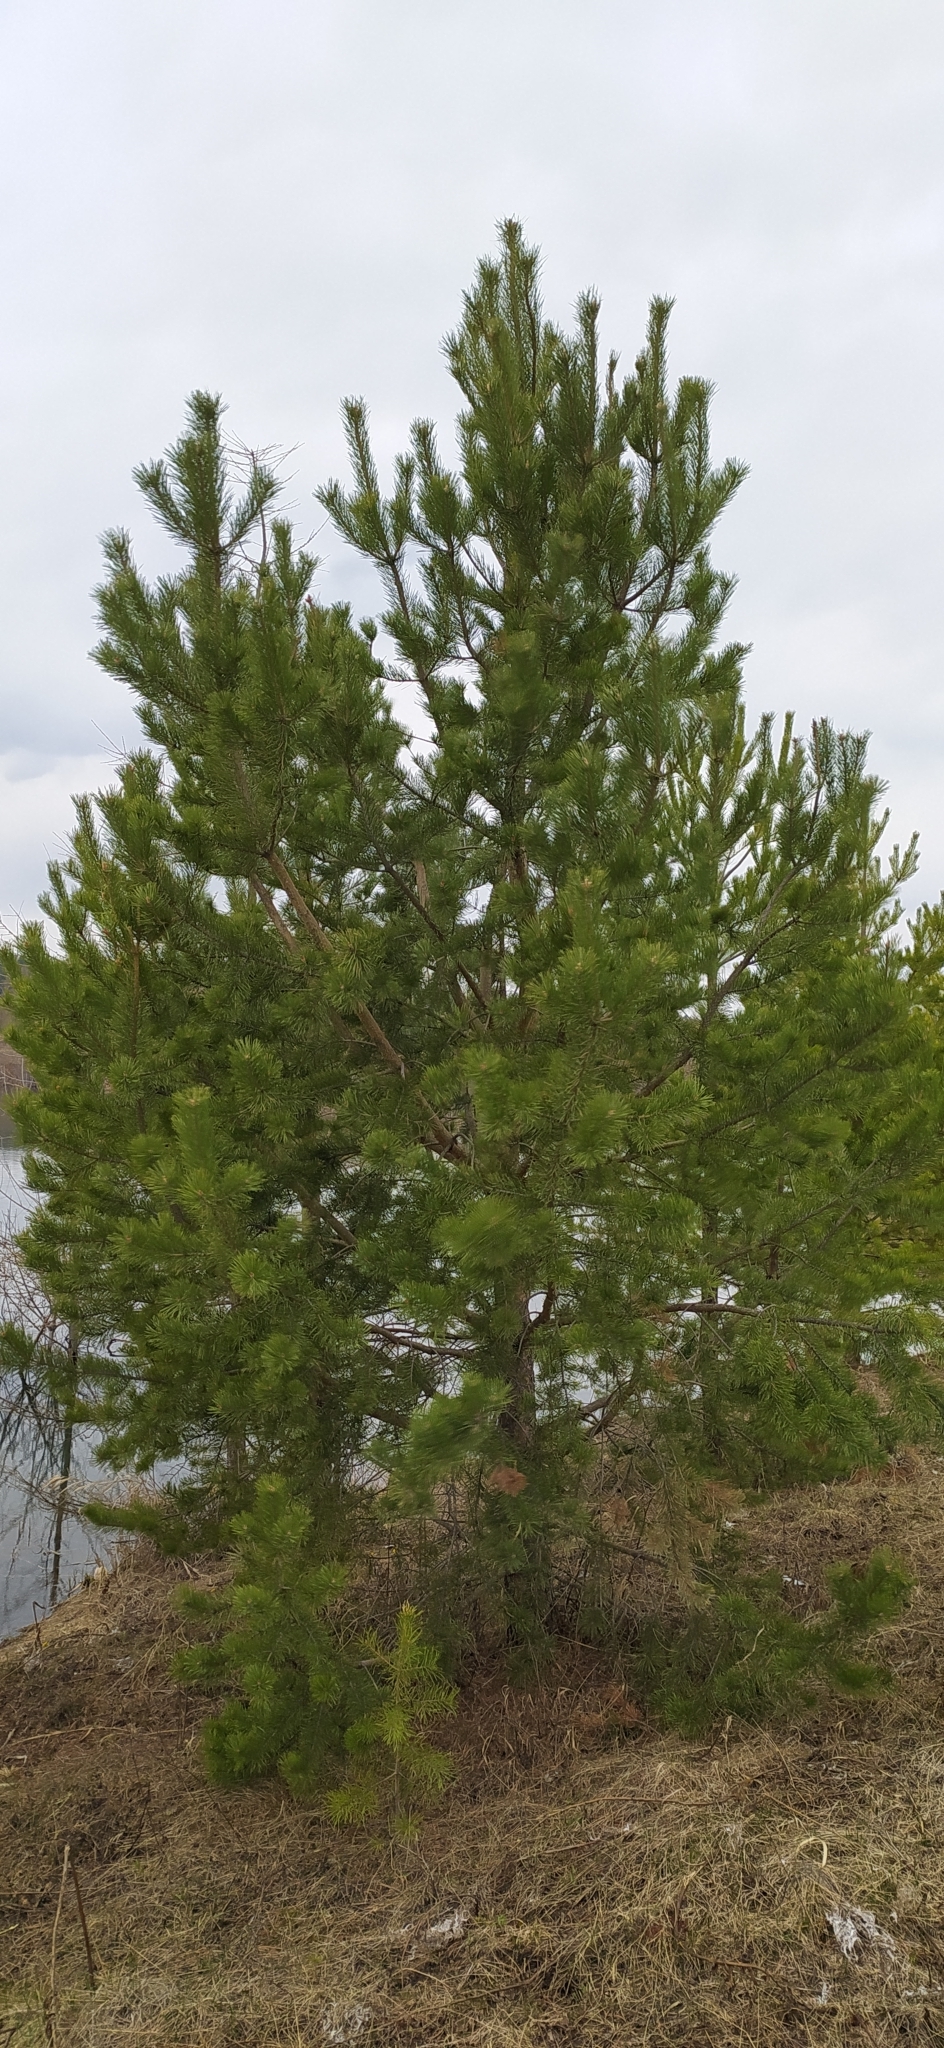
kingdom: Plantae
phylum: Tracheophyta
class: Pinopsida
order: Pinales
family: Pinaceae
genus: Pinus
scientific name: Pinus sylvestris
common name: Scots pine
